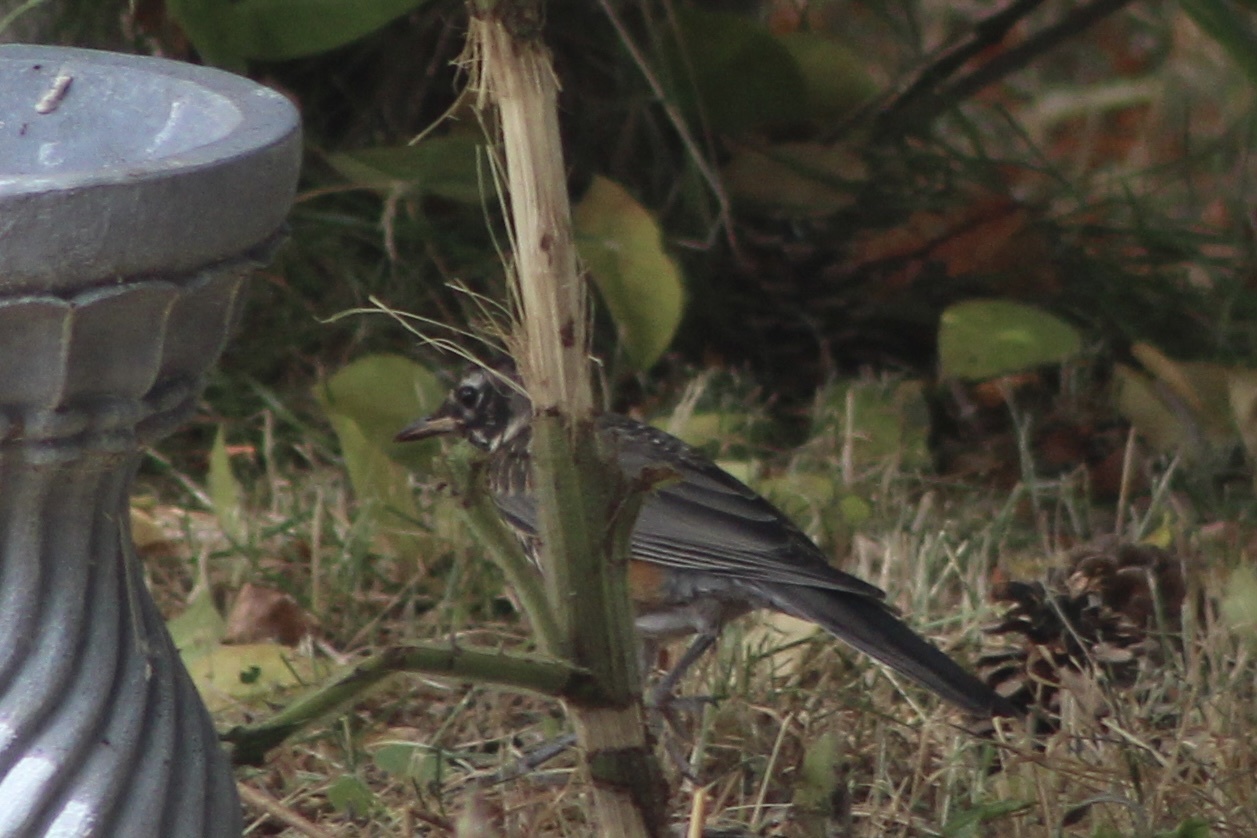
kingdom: Animalia
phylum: Chordata
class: Aves
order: Passeriformes
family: Turdidae
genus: Turdus
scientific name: Turdus migratorius
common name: American robin
